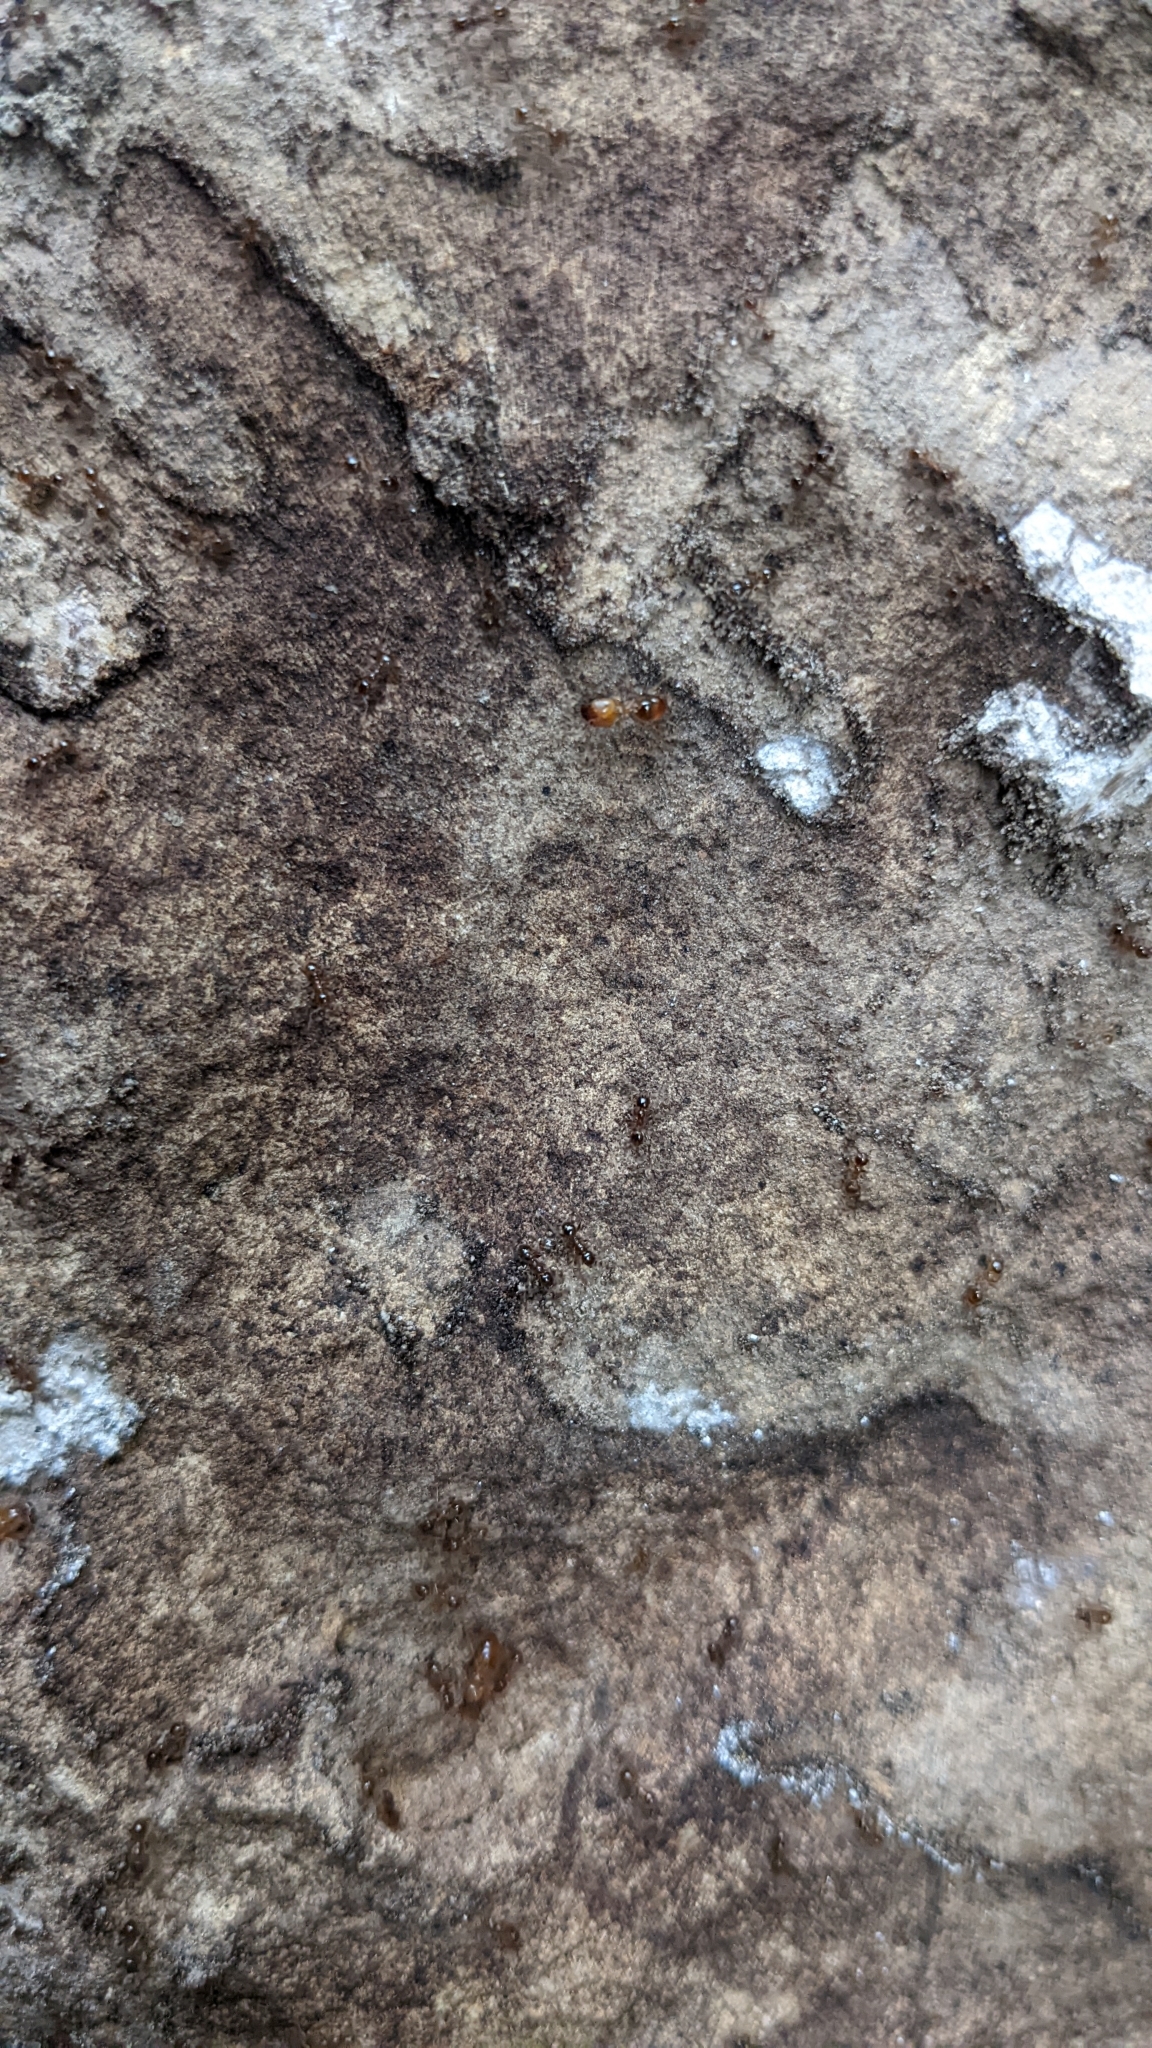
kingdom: Animalia
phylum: Arthropoda
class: Insecta
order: Hymenoptera
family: Formicidae
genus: Pheidole
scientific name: Pheidole pallidula
